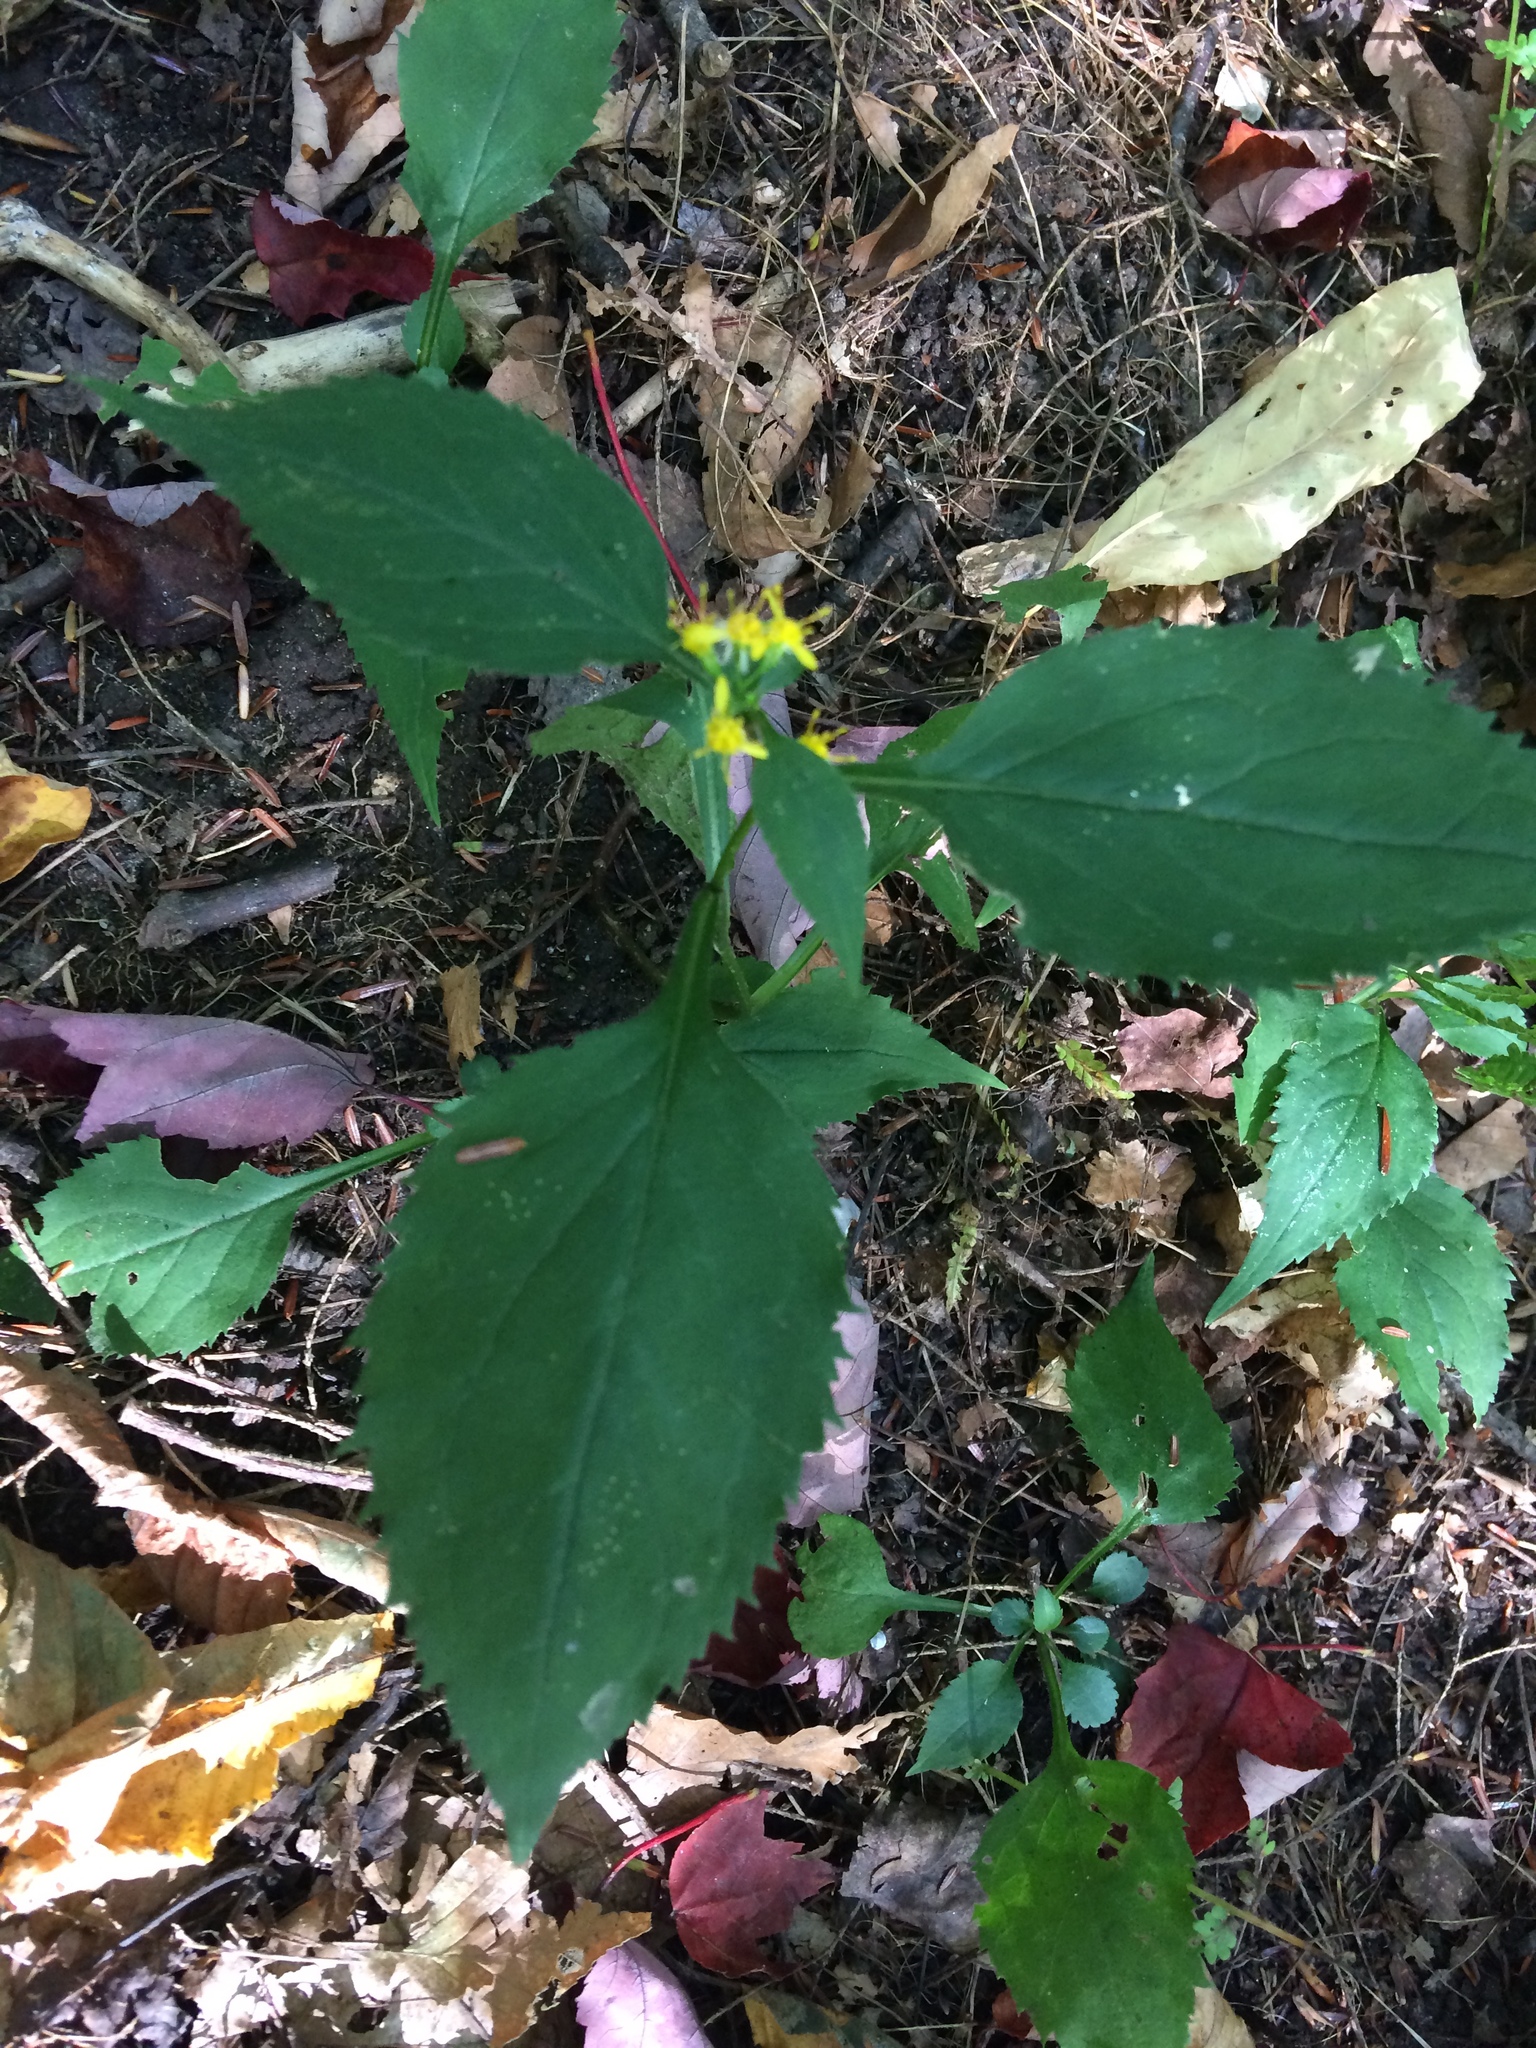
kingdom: Plantae
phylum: Tracheophyta
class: Magnoliopsida
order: Asterales
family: Asteraceae
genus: Solidago
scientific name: Solidago flexicaulis
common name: Zig-zag goldenrod
